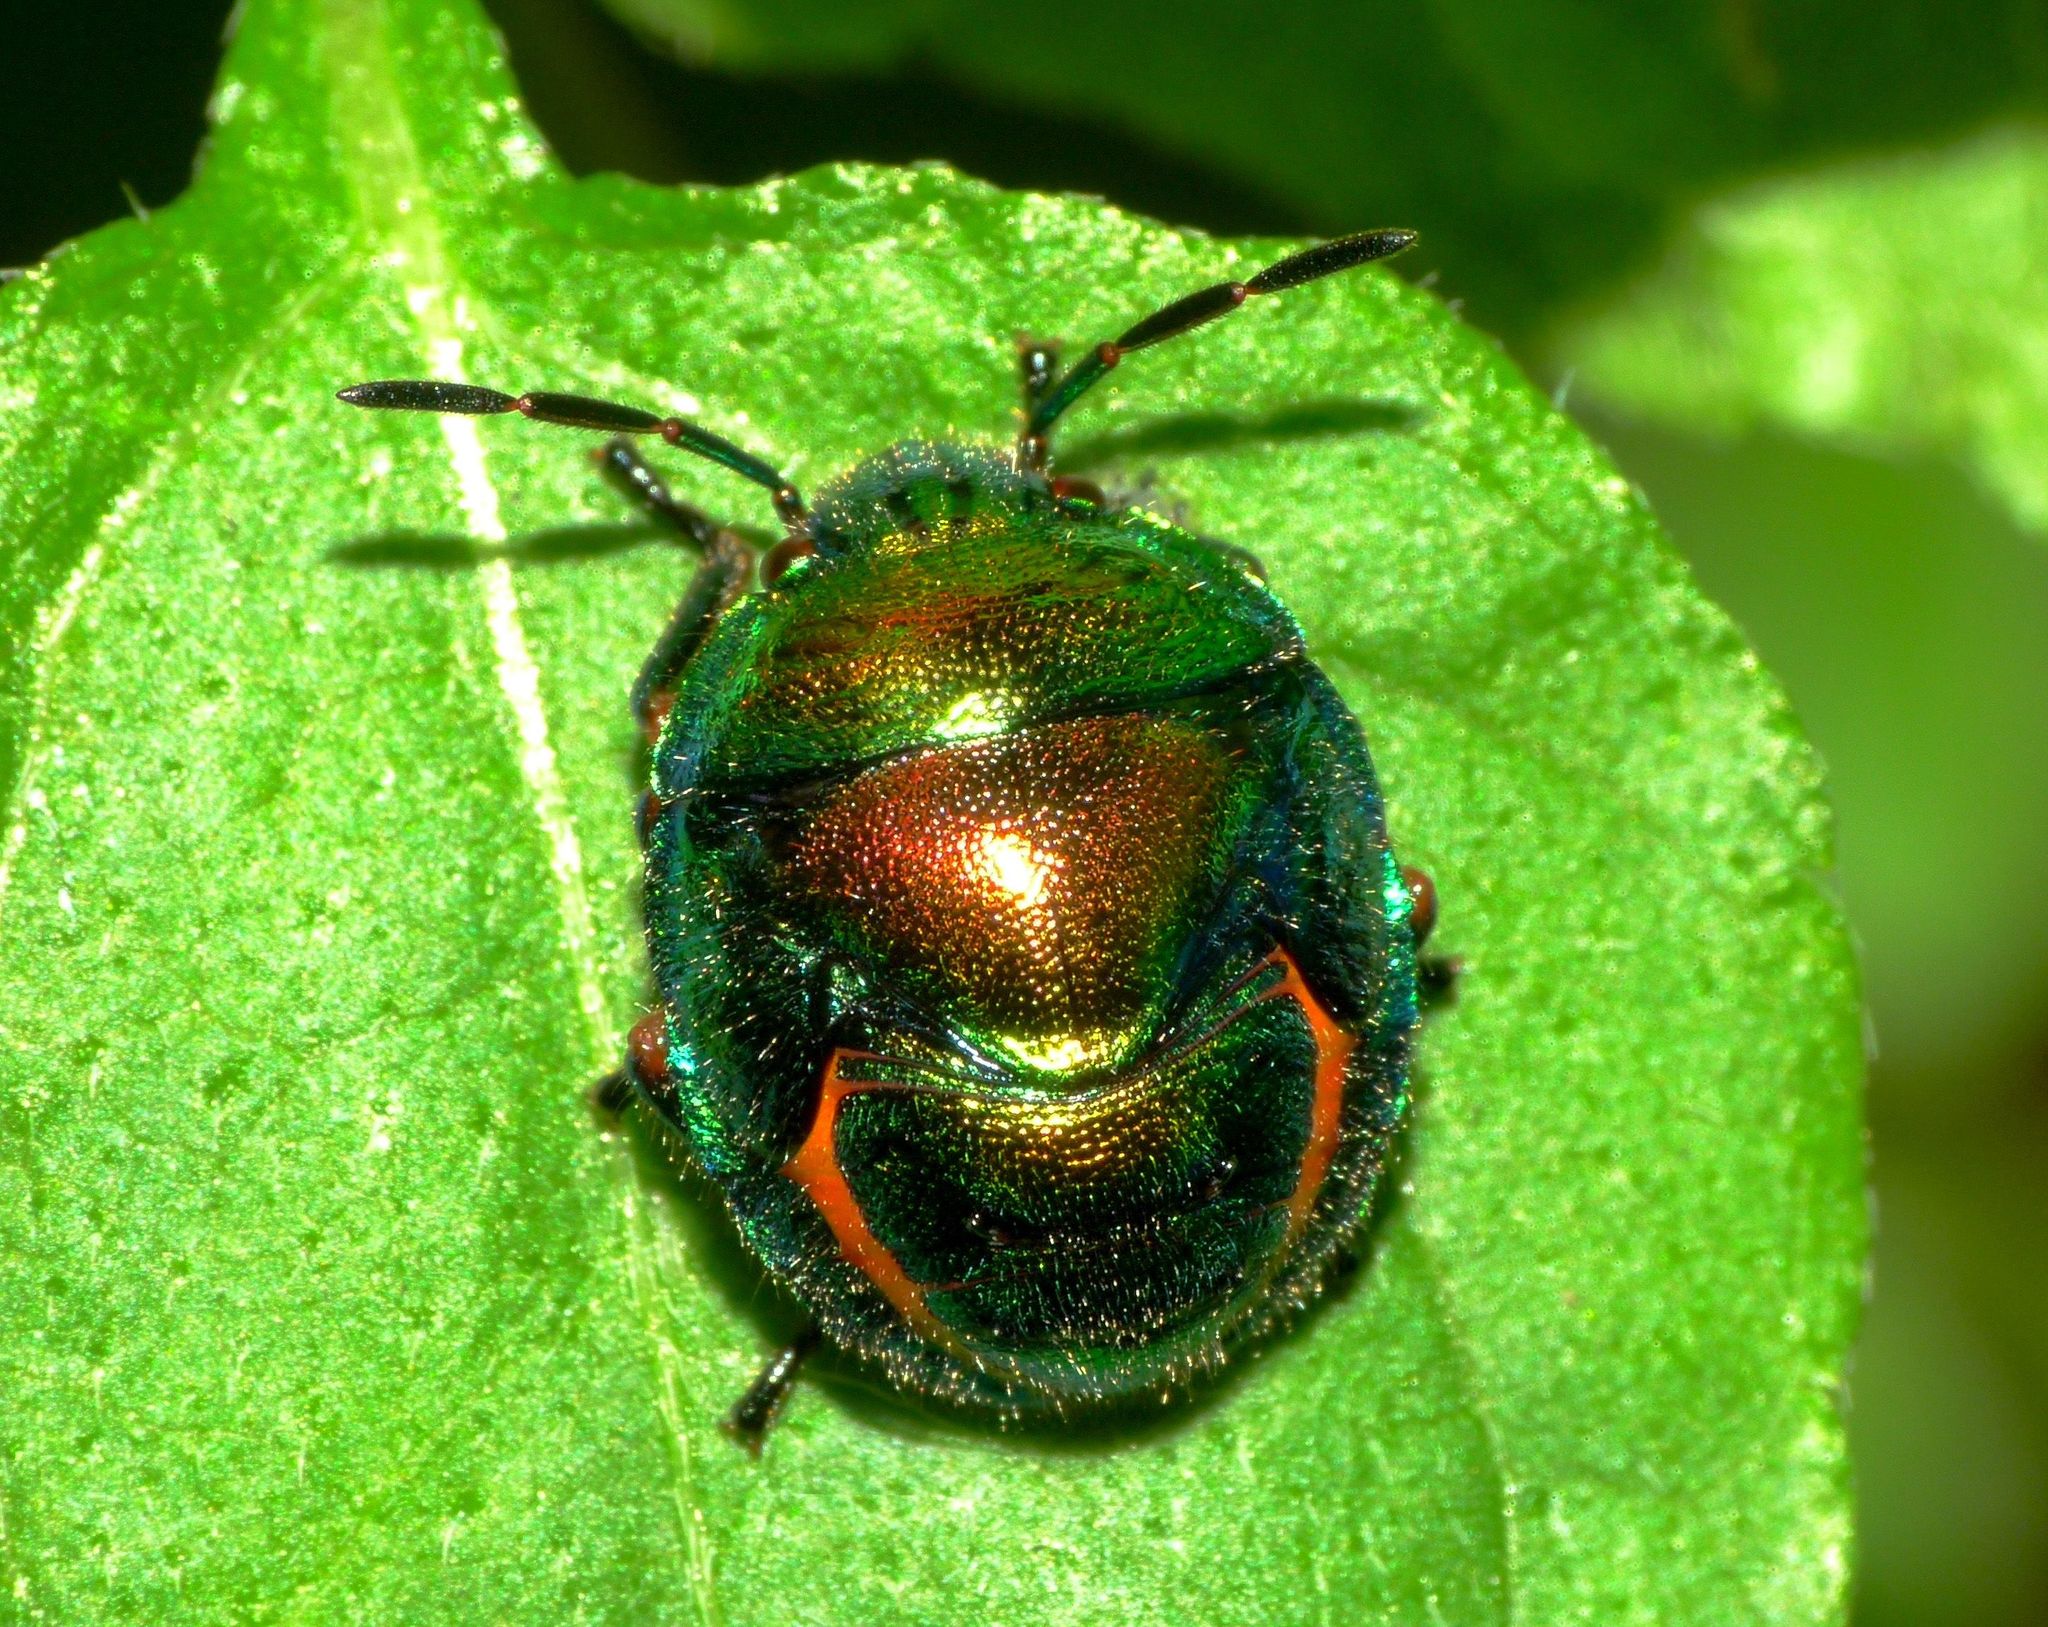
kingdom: Animalia
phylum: Arthropoda
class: Insecta
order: Hemiptera
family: Scutelleridae
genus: Lampromicra
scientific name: Lampromicra senator
